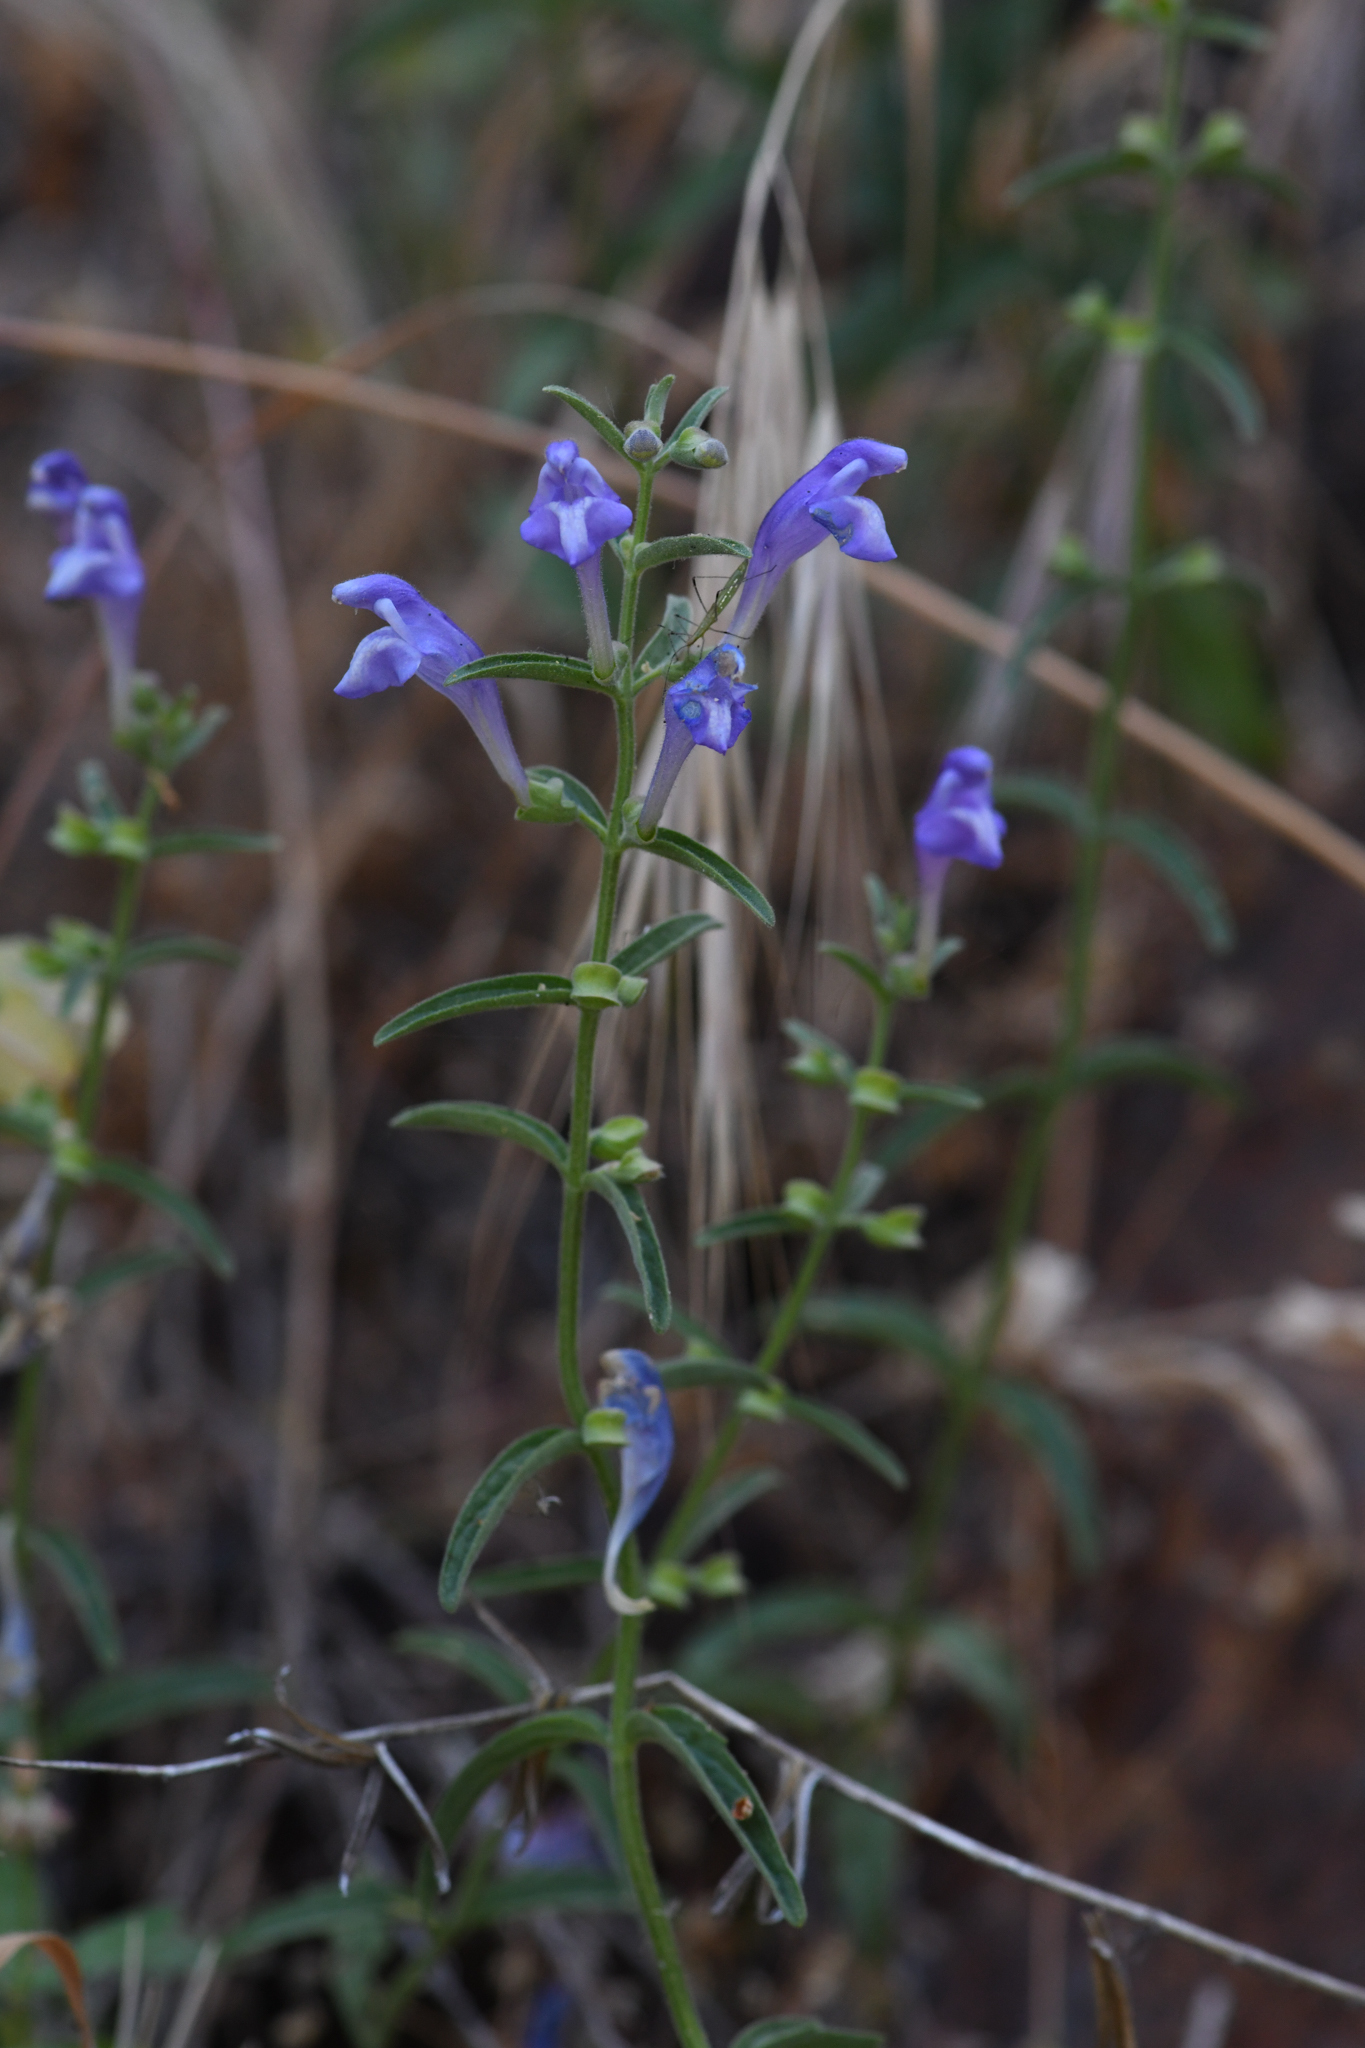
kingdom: Plantae
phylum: Tracheophyta
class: Magnoliopsida
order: Lamiales
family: Lamiaceae
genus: Scutellaria
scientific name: Scutellaria siphocampyloides
